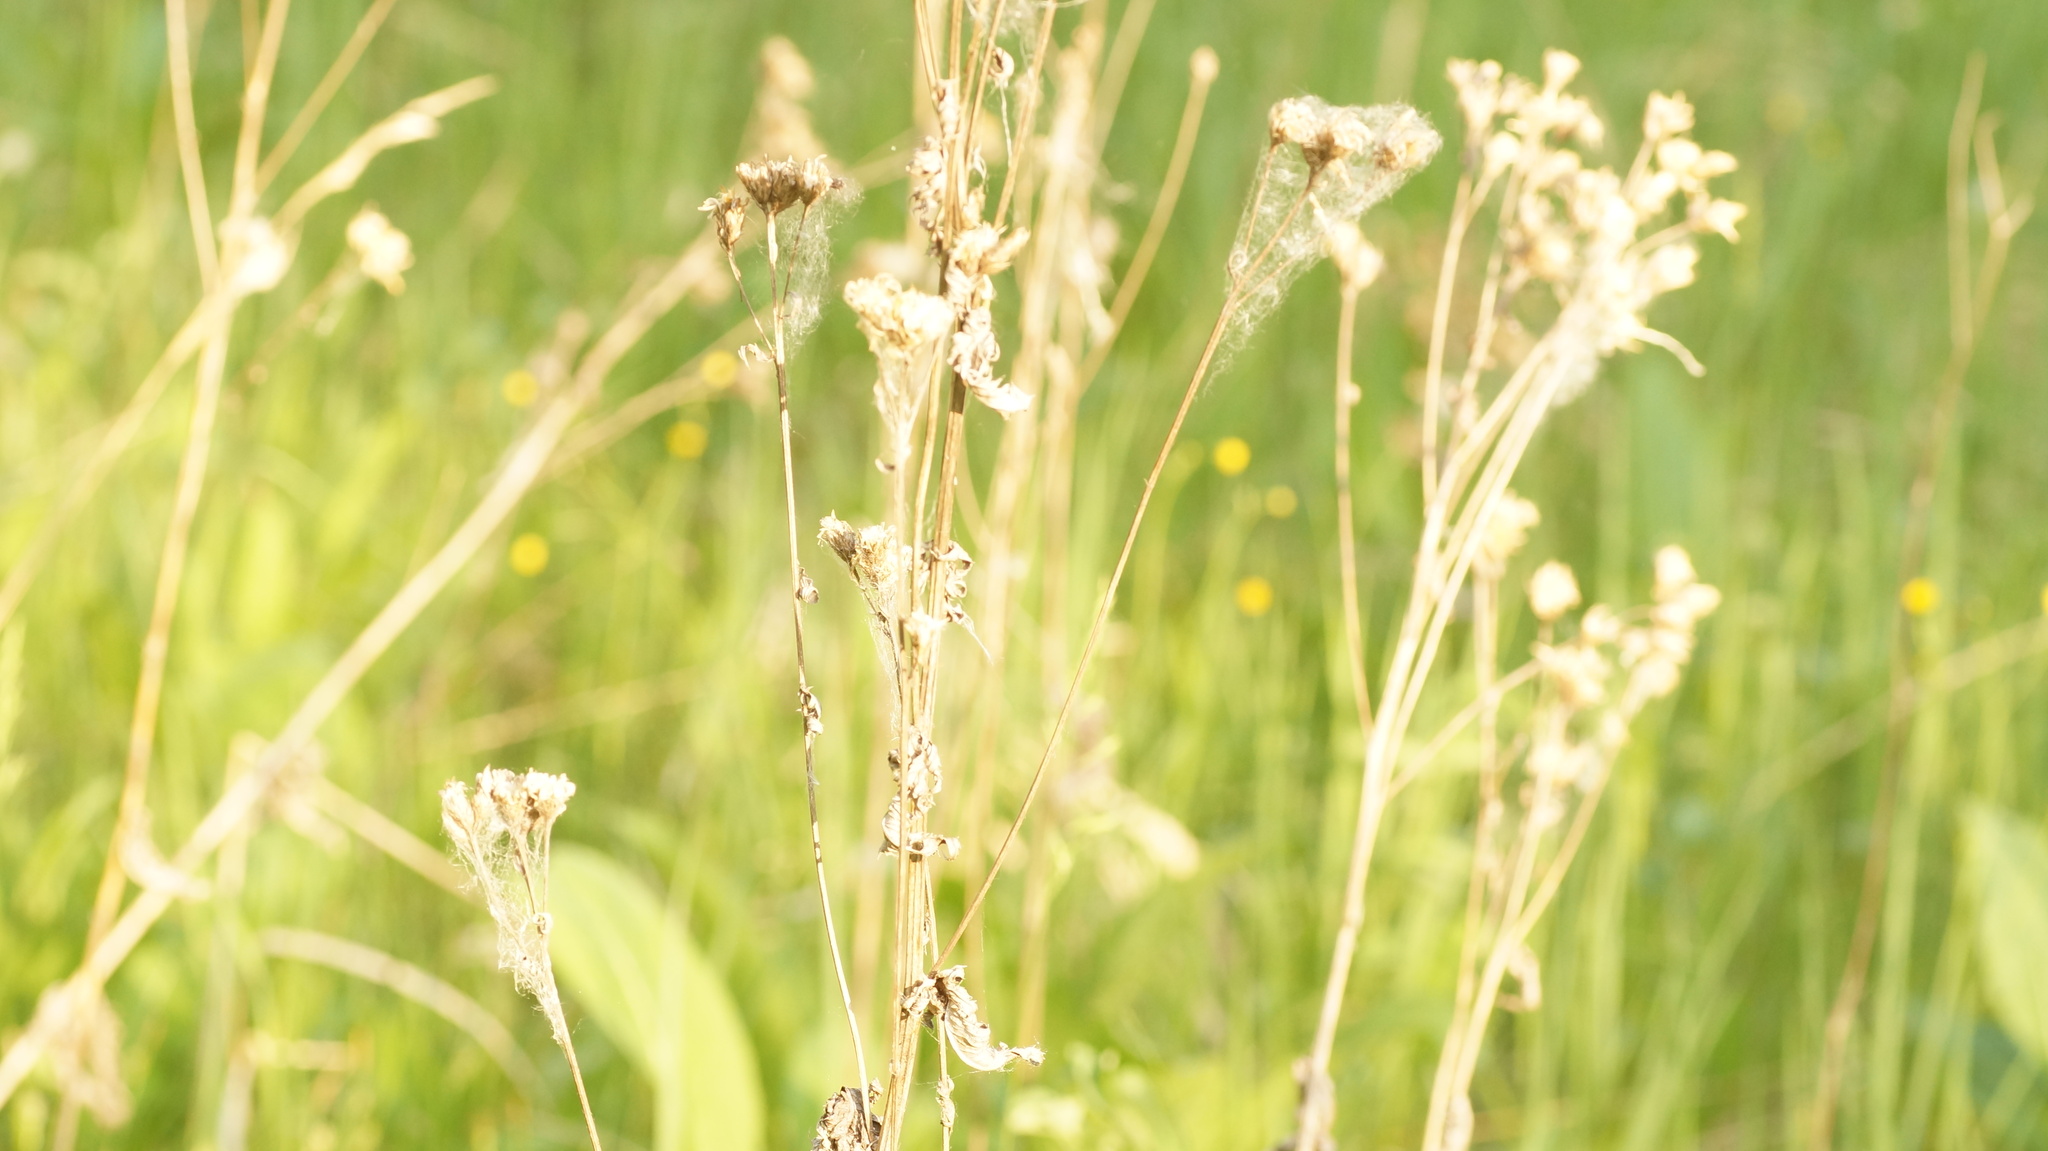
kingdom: Plantae
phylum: Tracheophyta
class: Magnoliopsida
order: Asterales
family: Asteraceae
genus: Serratula
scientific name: Serratula tinctoria
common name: Saw-wort
